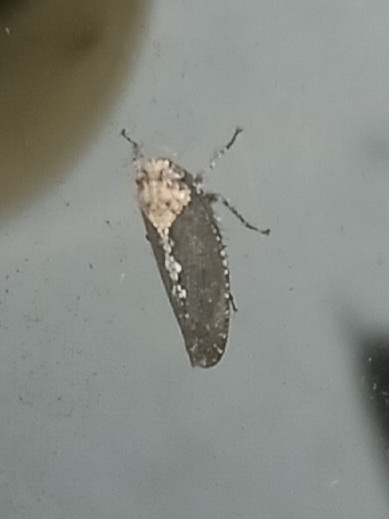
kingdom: Animalia
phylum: Arthropoda
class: Insecta
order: Hemiptera
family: Cicadellidae
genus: Excultanus
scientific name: Excultanus excultus
